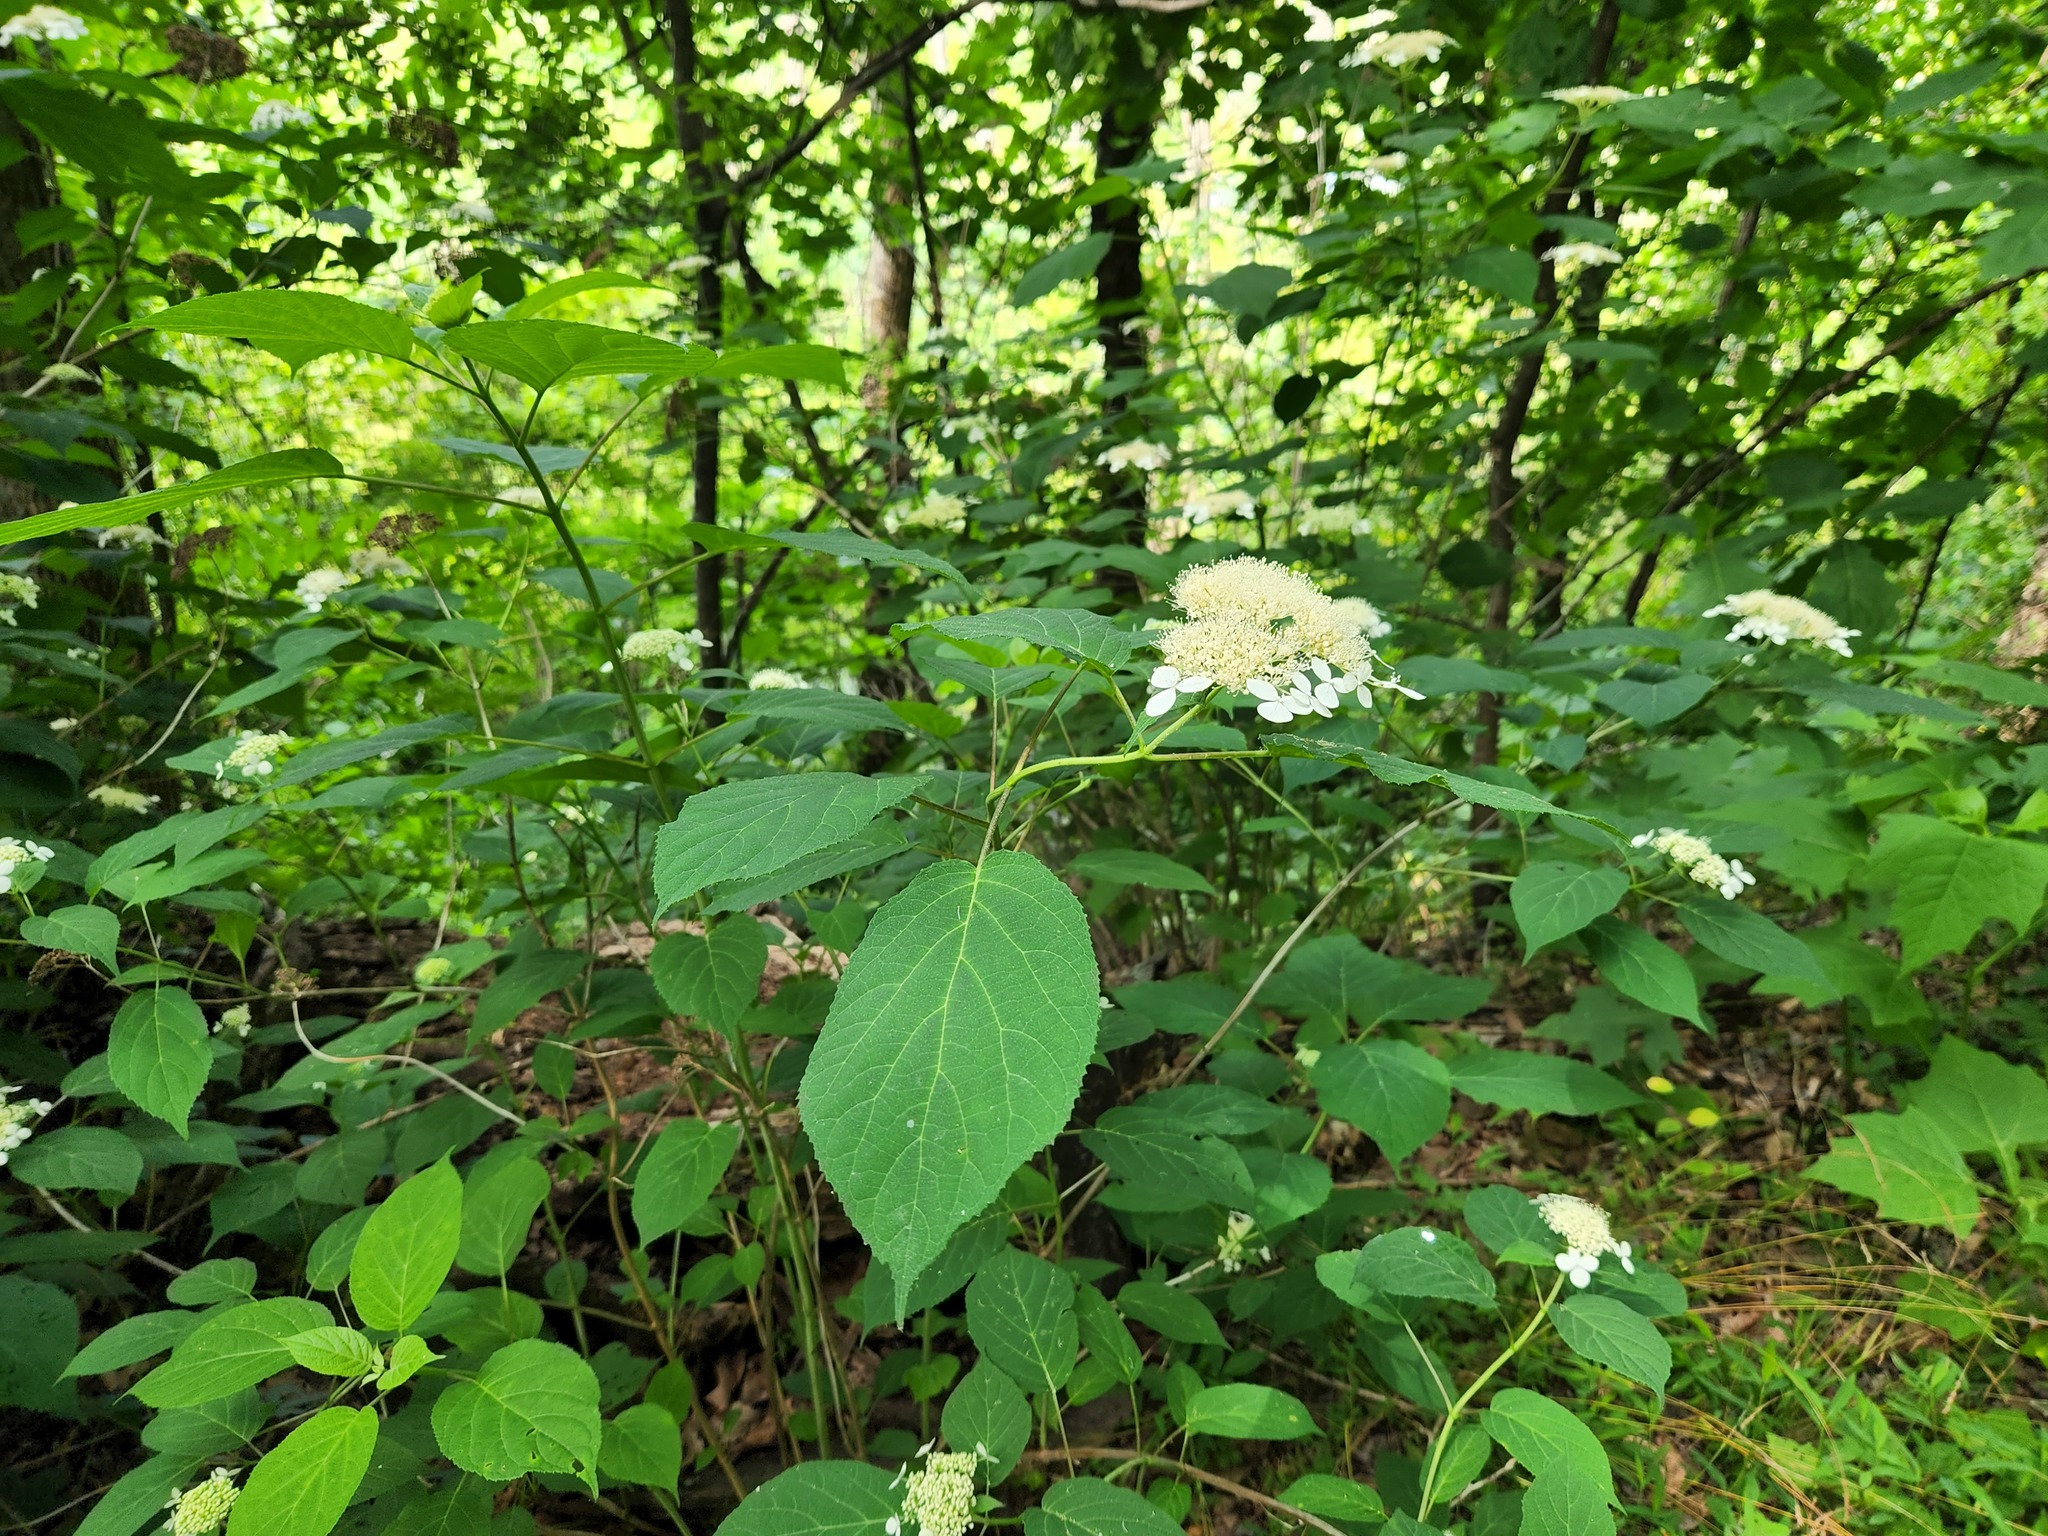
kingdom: Plantae
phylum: Tracheophyta
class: Magnoliopsida
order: Cornales
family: Hydrangeaceae
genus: Hydrangea
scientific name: Hydrangea arborescens
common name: Sevenbark
